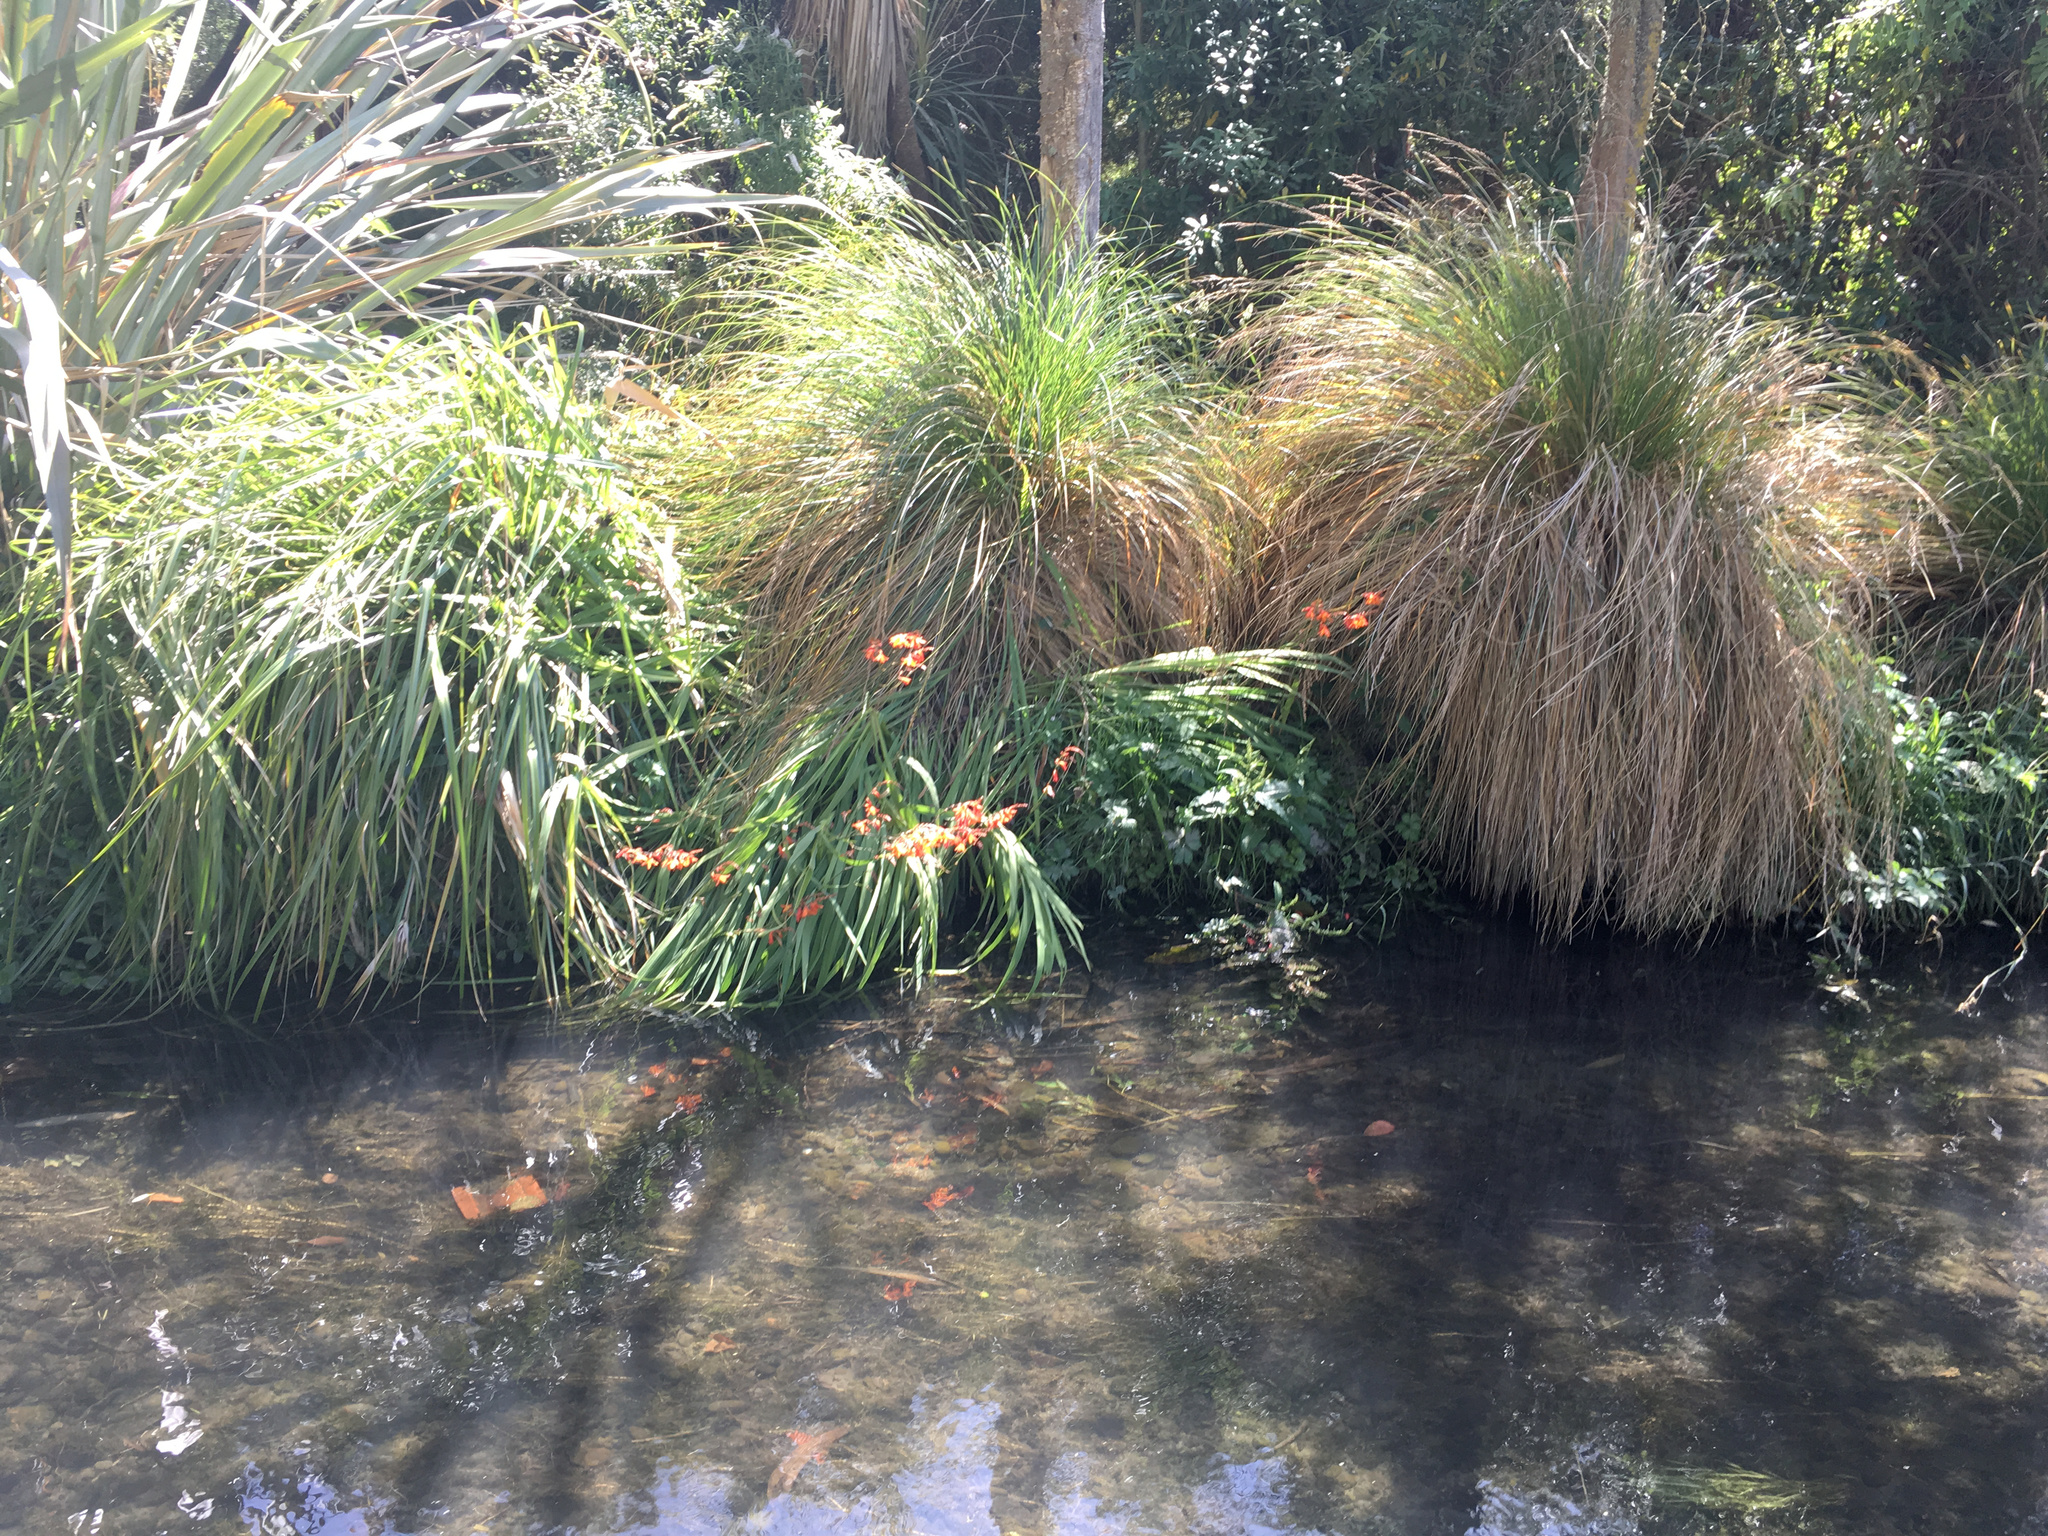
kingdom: Plantae
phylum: Tracheophyta
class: Liliopsida
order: Asparagales
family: Iridaceae
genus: Crocosmia
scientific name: Crocosmia crocosmiiflora
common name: Montbretia
